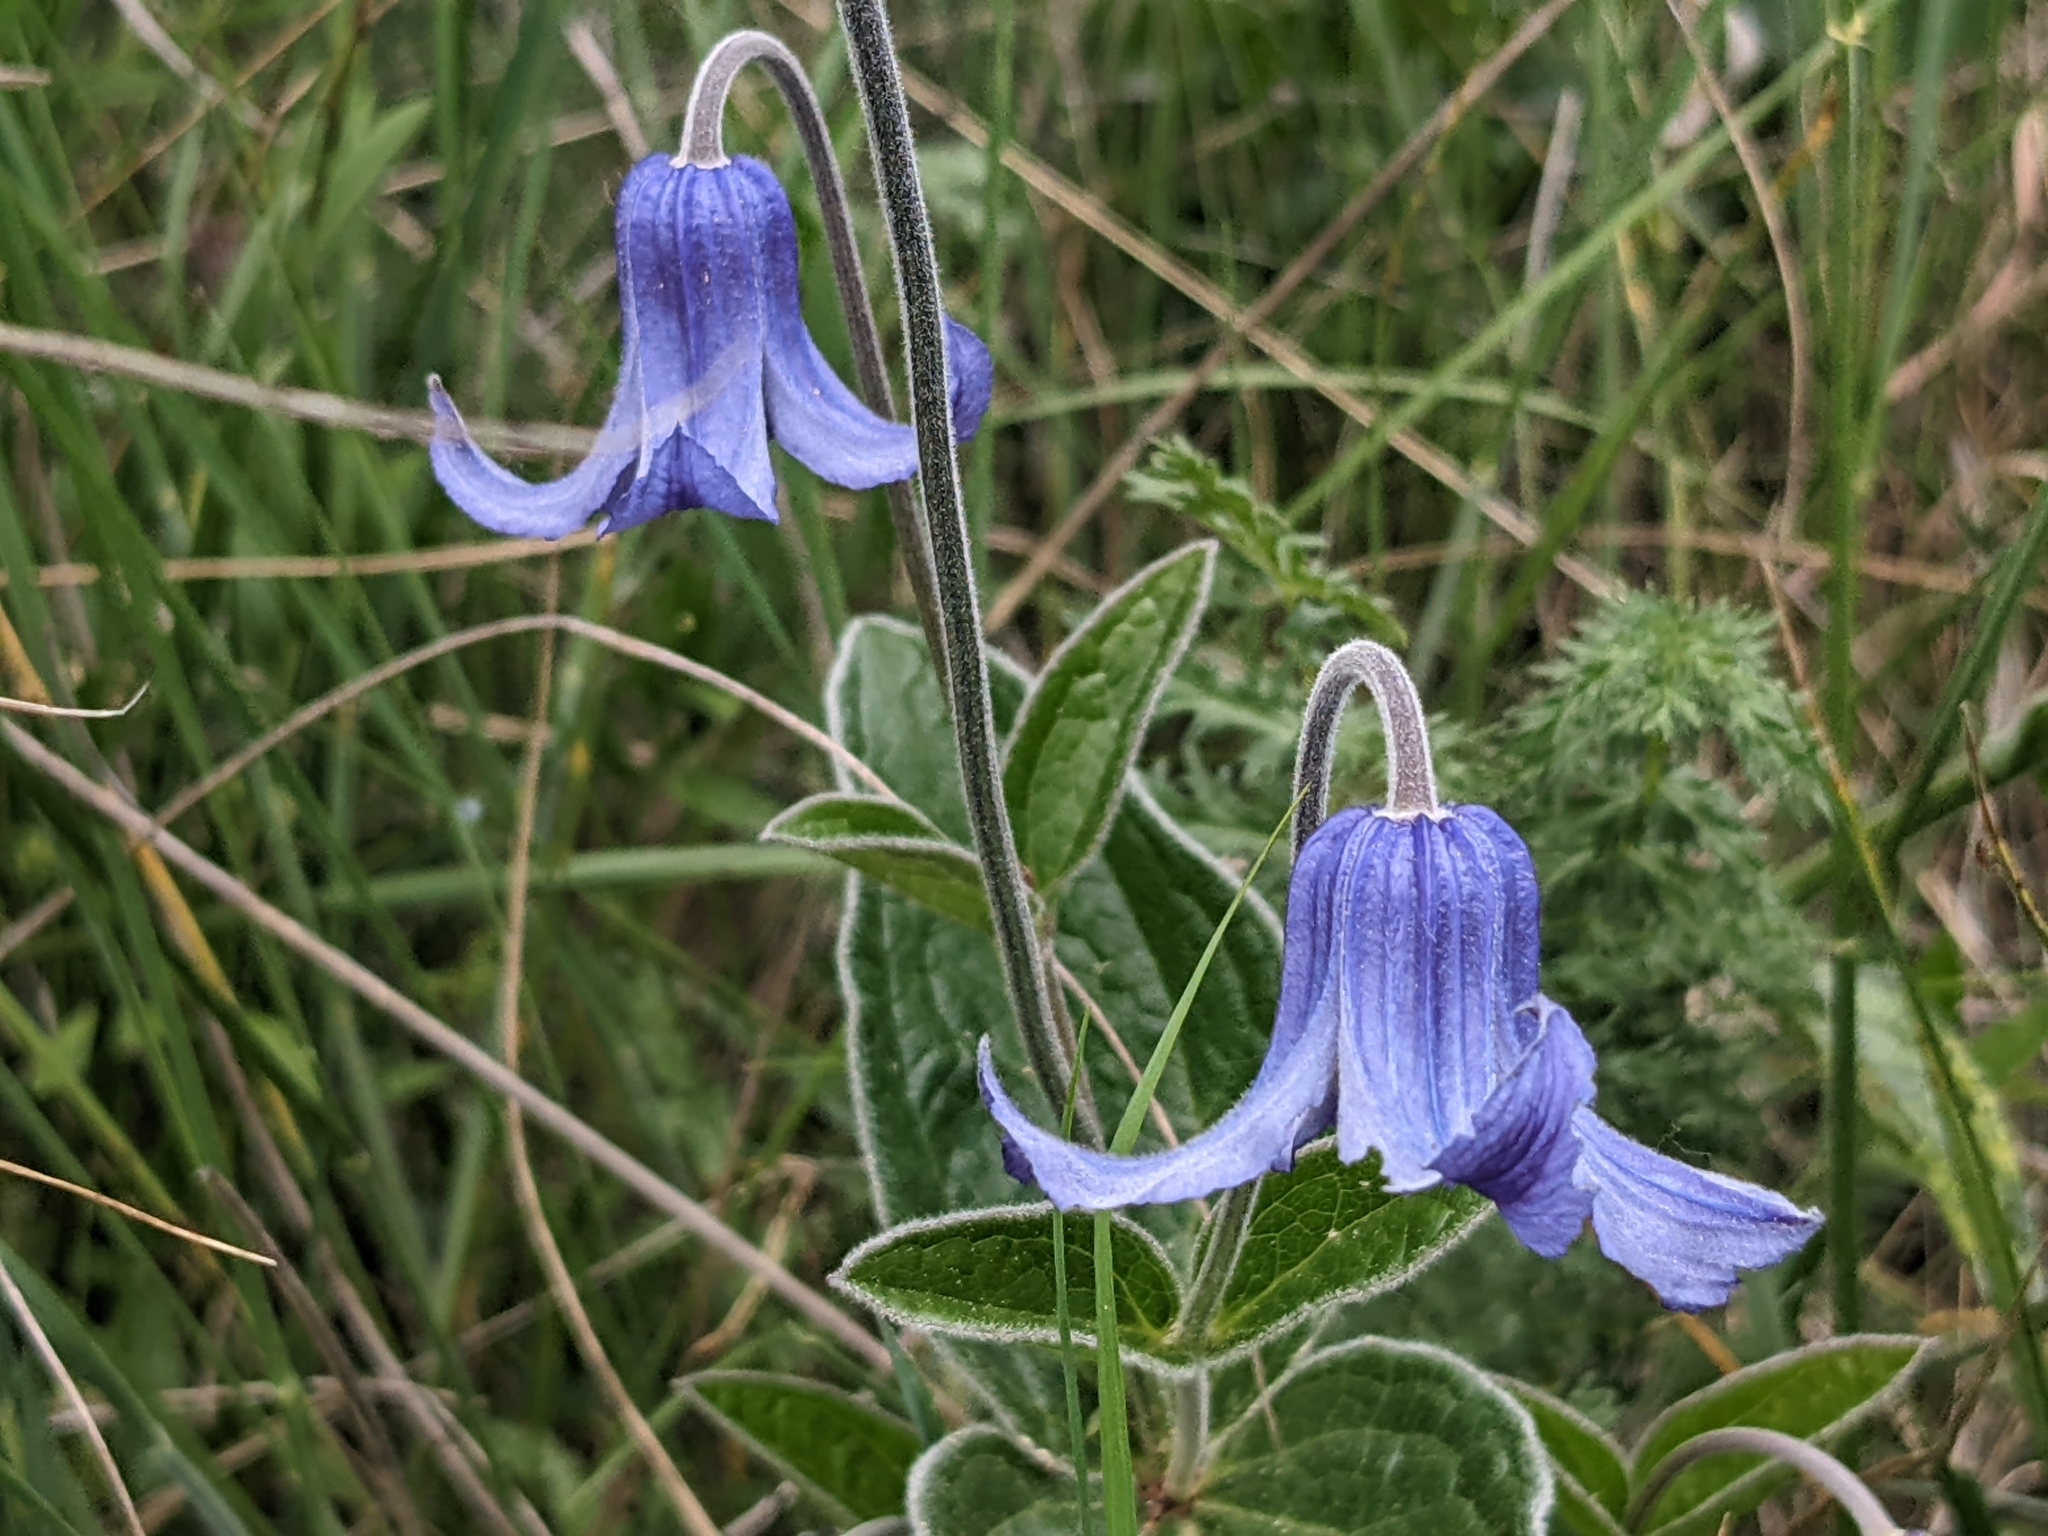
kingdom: Plantae
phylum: Tracheophyta
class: Magnoliopsida
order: Ranunculales
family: Ranunculaceae
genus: Clematis
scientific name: Clematis integrifolia
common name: Solitary clematis
